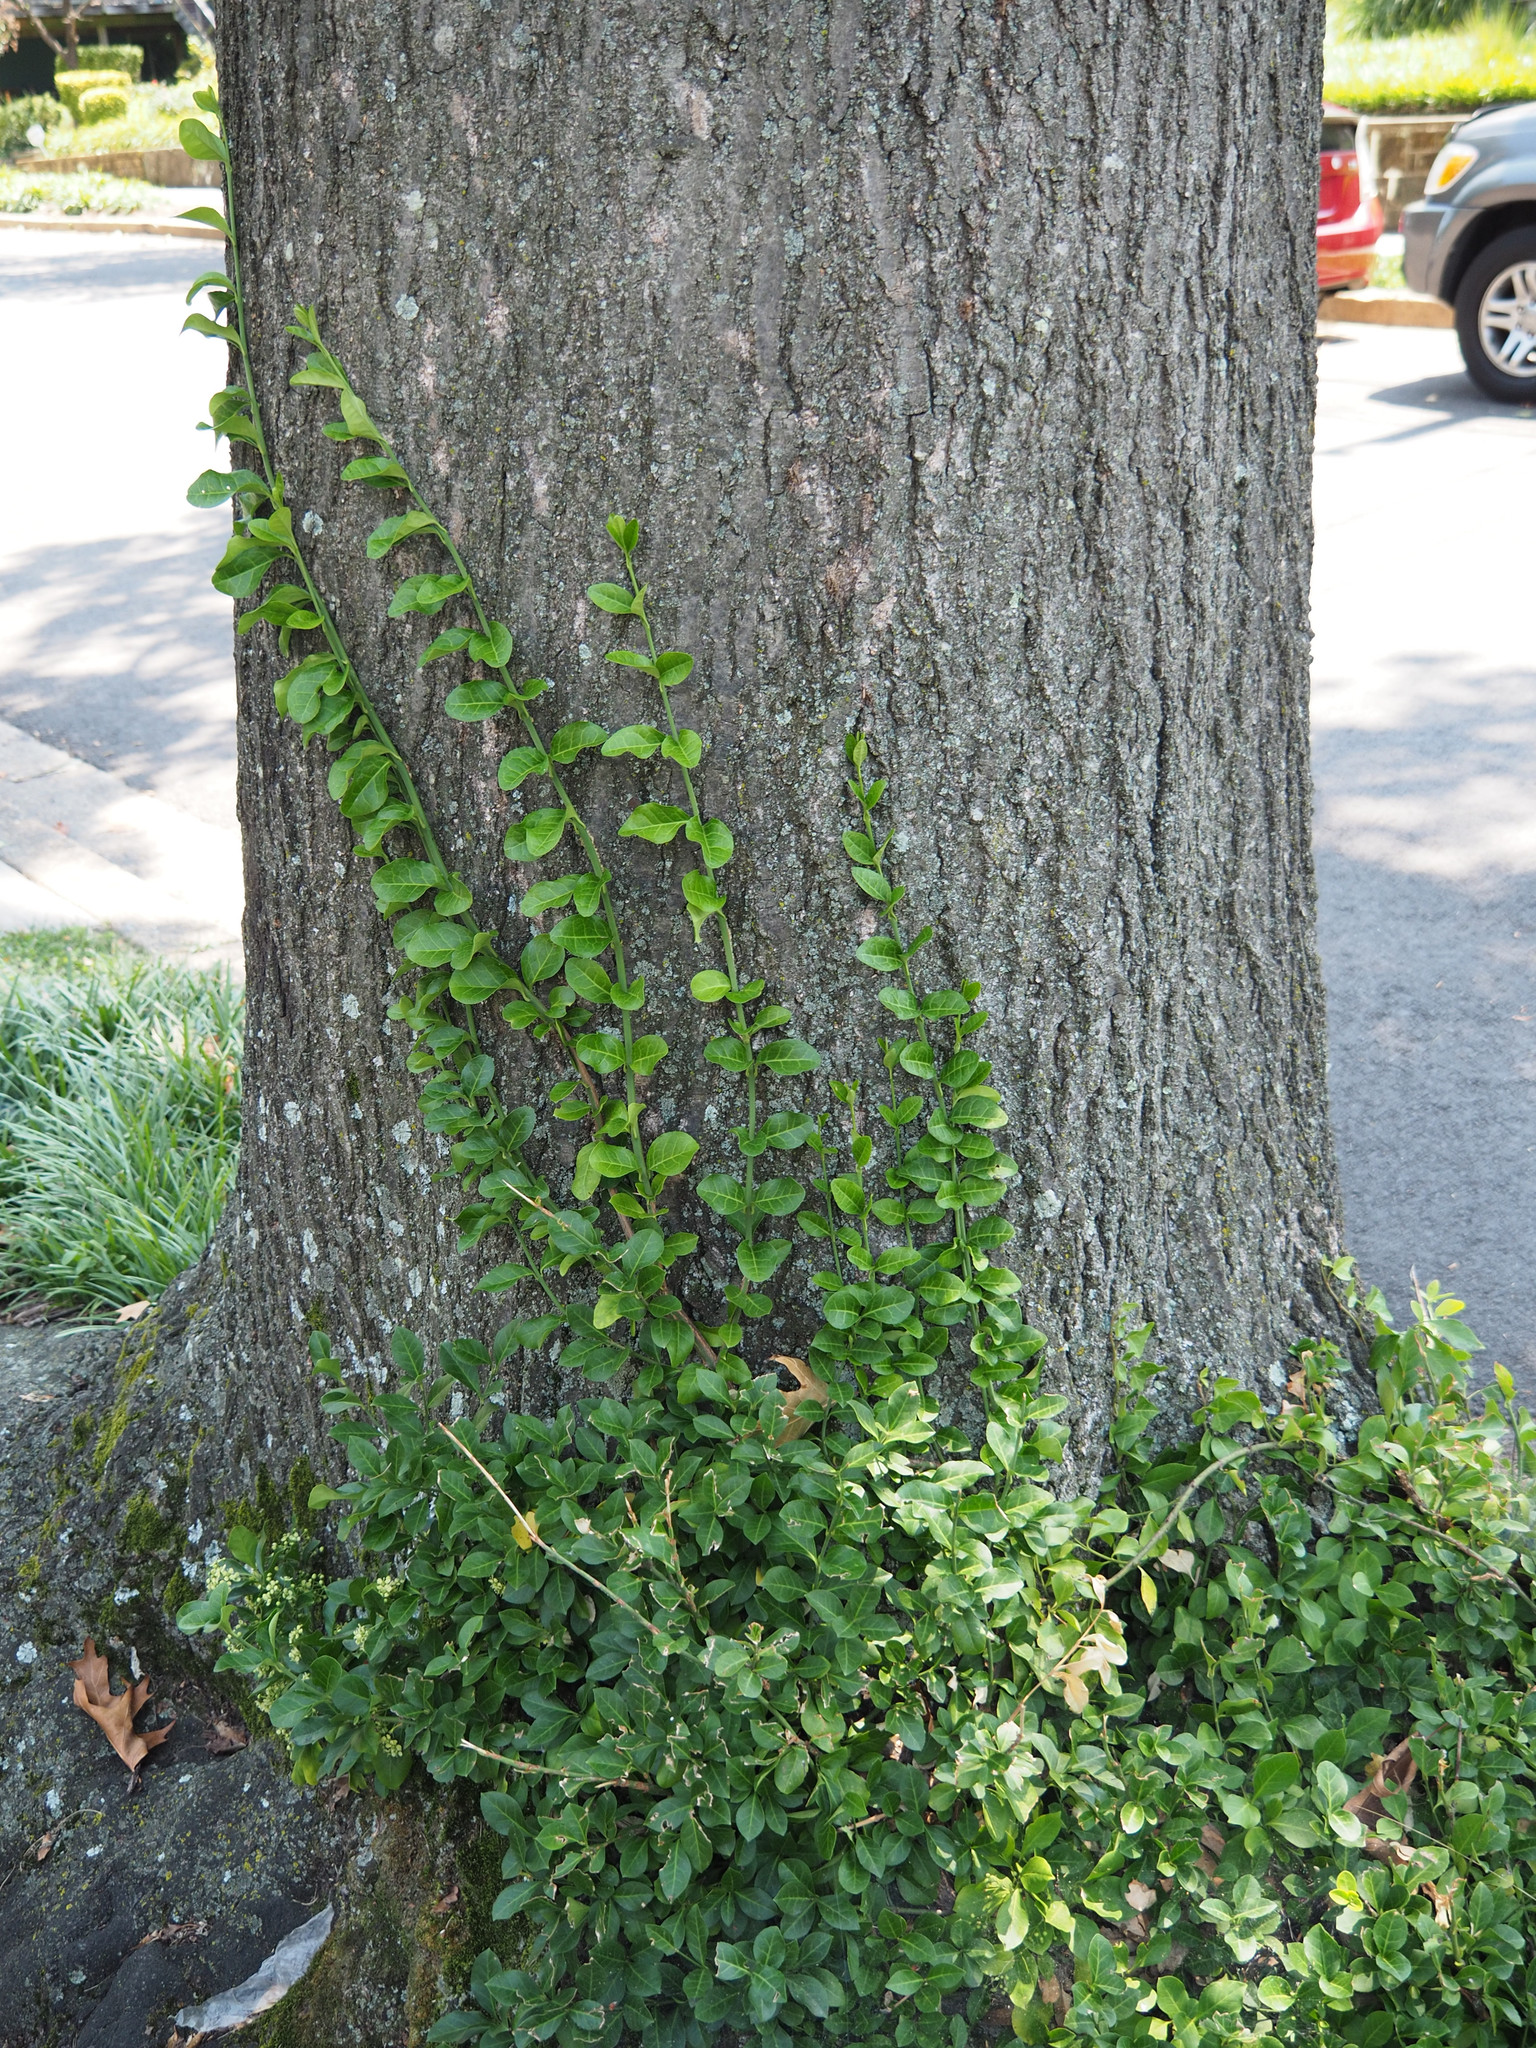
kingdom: Plantae
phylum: Tracheophyta
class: Magnoliopsida
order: Celastrales
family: Celastraceae
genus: Euonymus
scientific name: Euonymus fortunei
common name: Climbing euonymus
